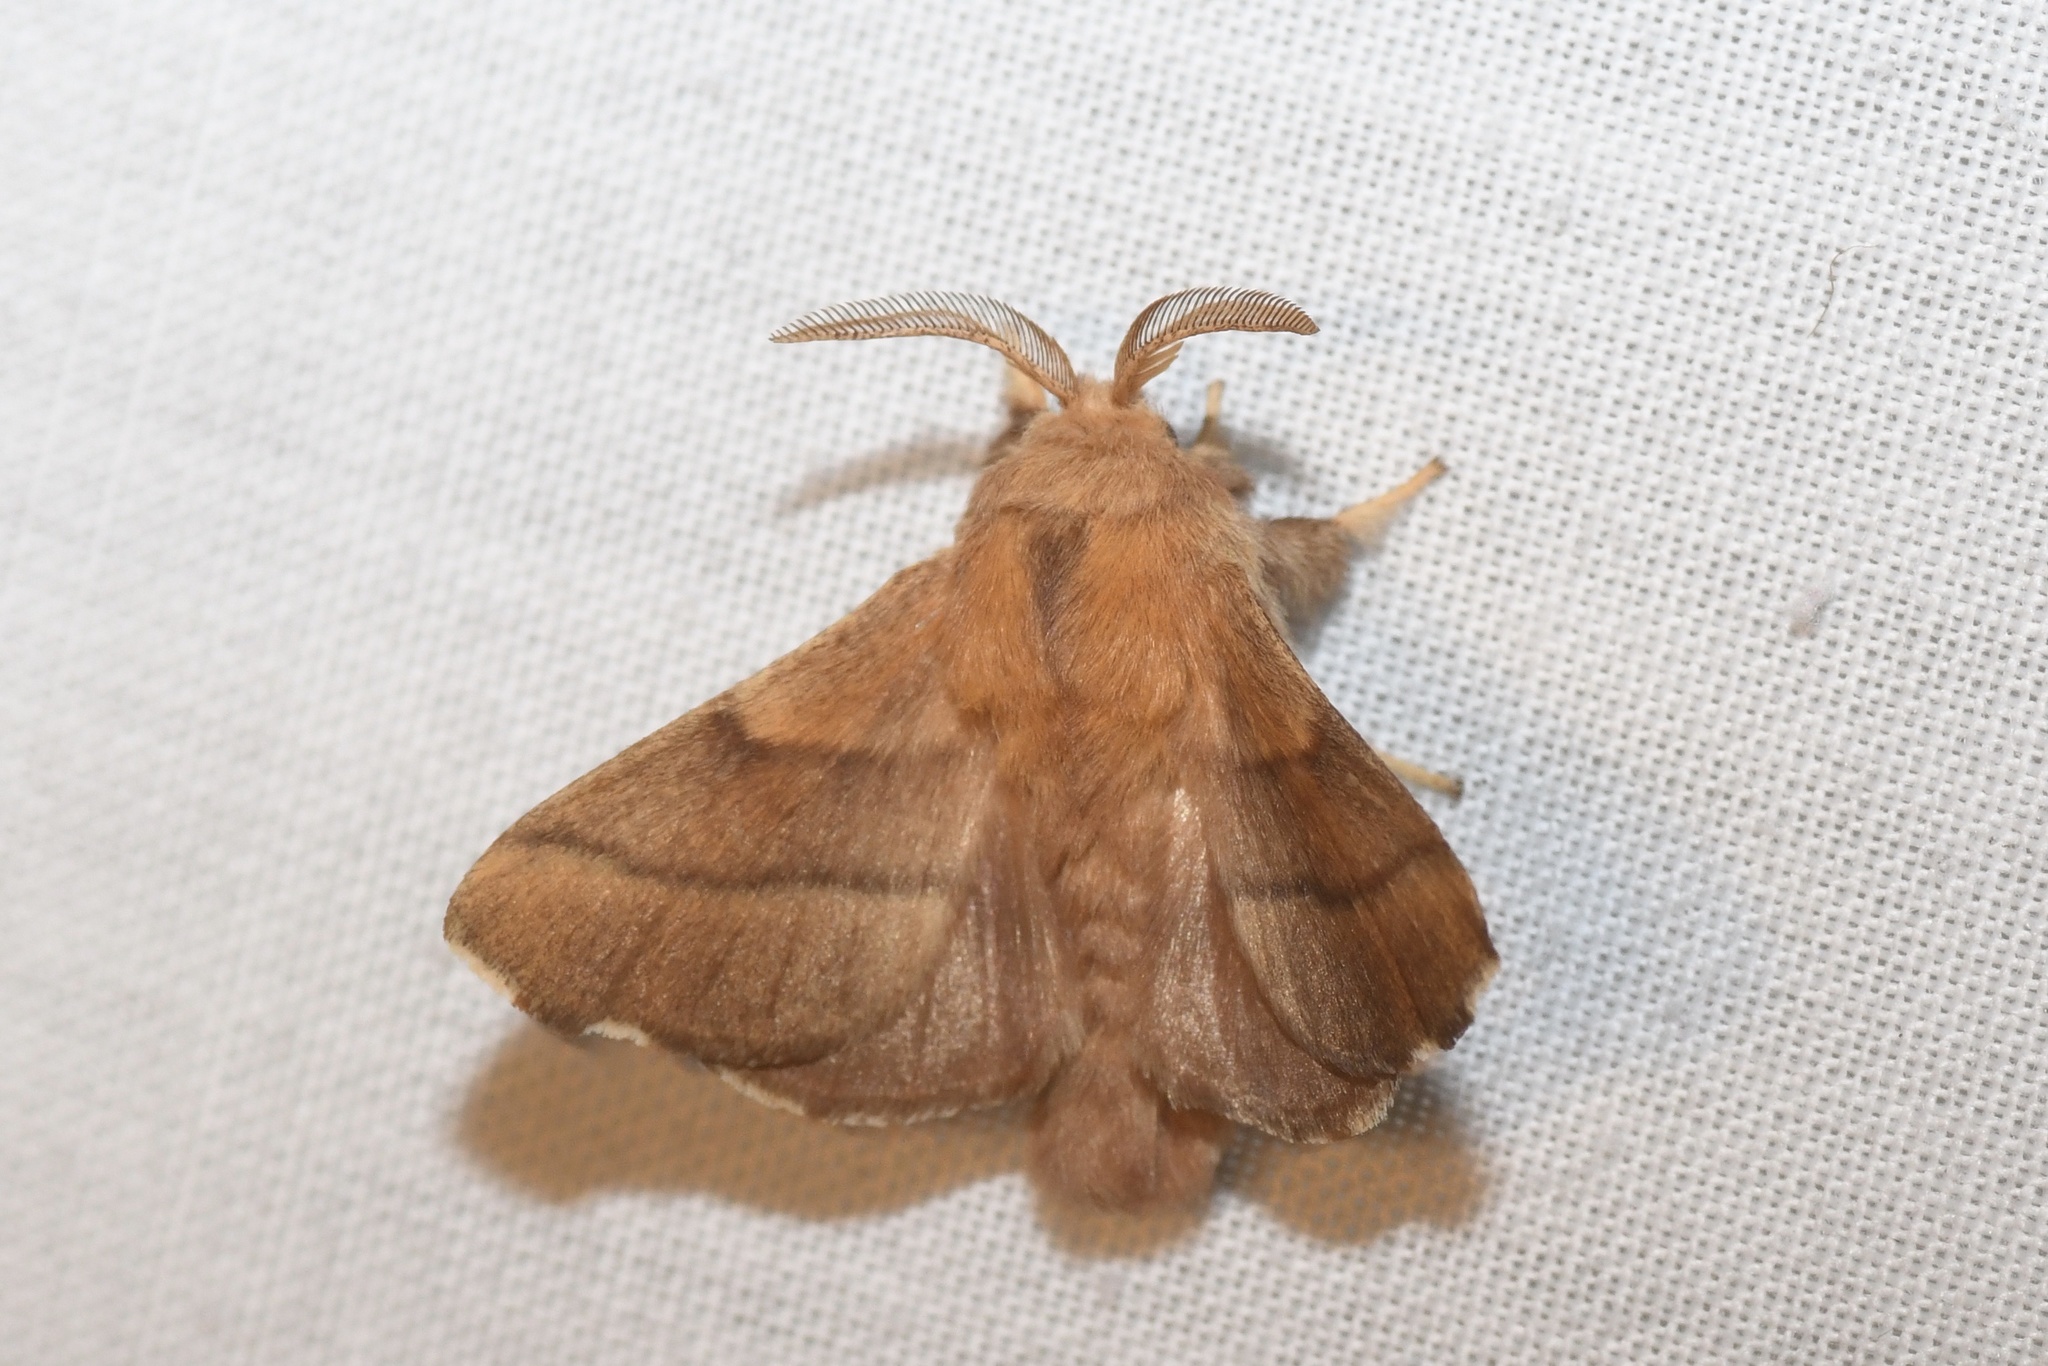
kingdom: Animalia
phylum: Arthropoda
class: Insecta
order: Lepidoptera
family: Lasiocampidae
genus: Malacosoma
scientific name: Malacosoma disstria
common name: Forest tent caterpillar
